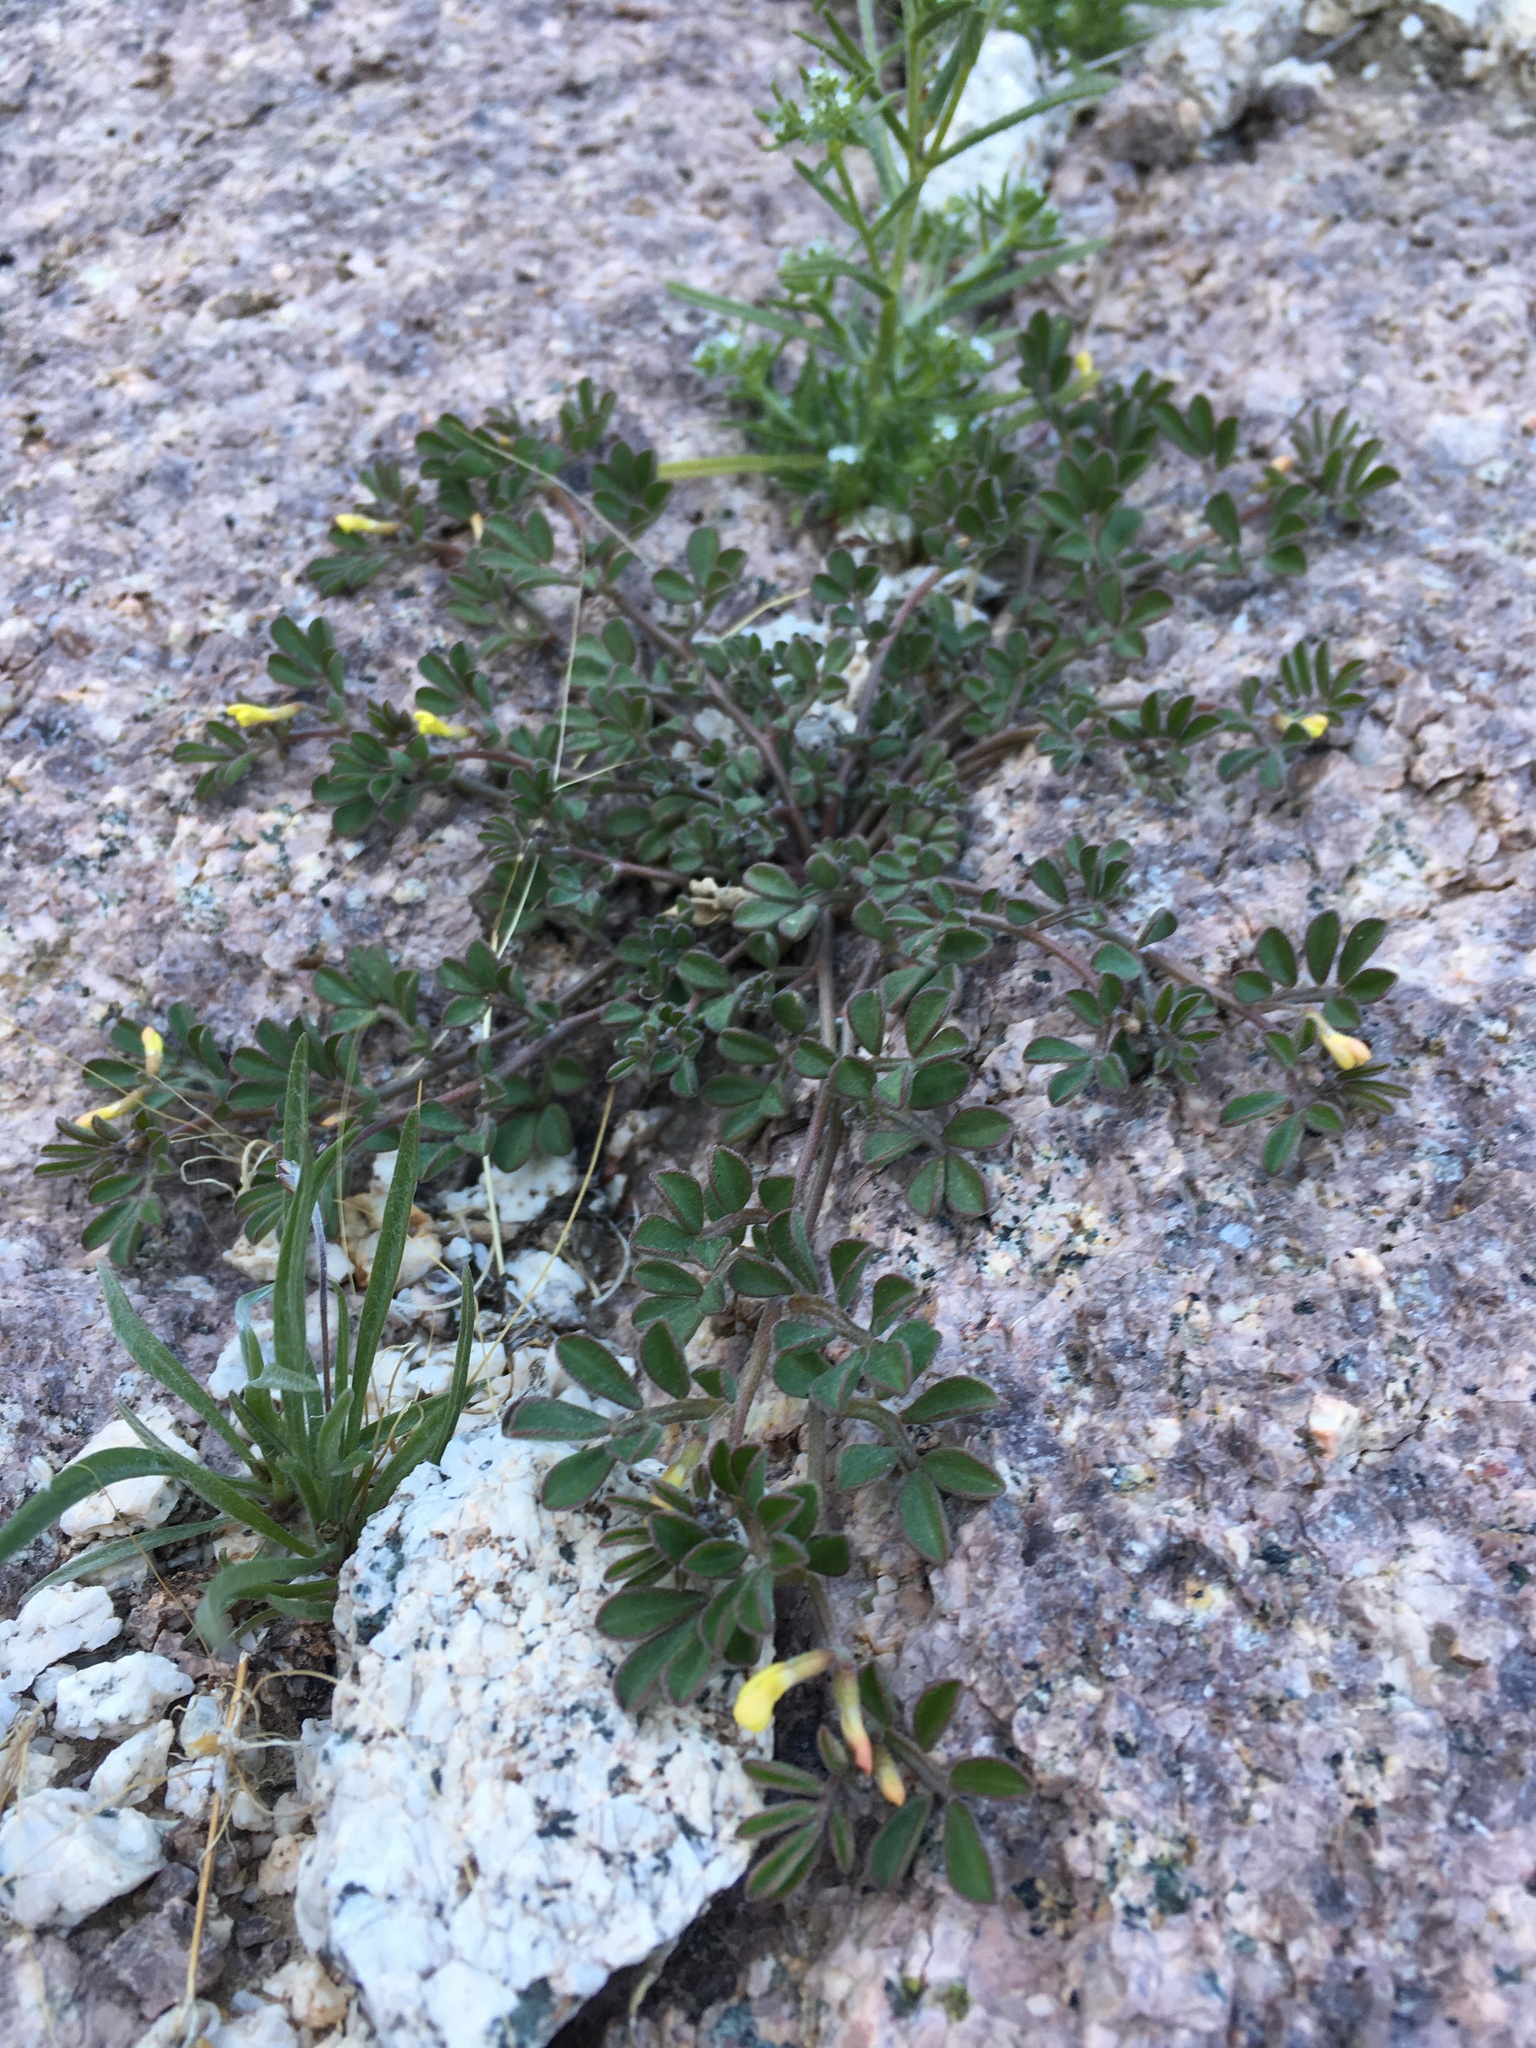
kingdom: Plantae
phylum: Tracheophyta
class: Magnoliopsida
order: Fabales
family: Fabaceae
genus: Acmispon
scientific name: Acmispon strigosus
